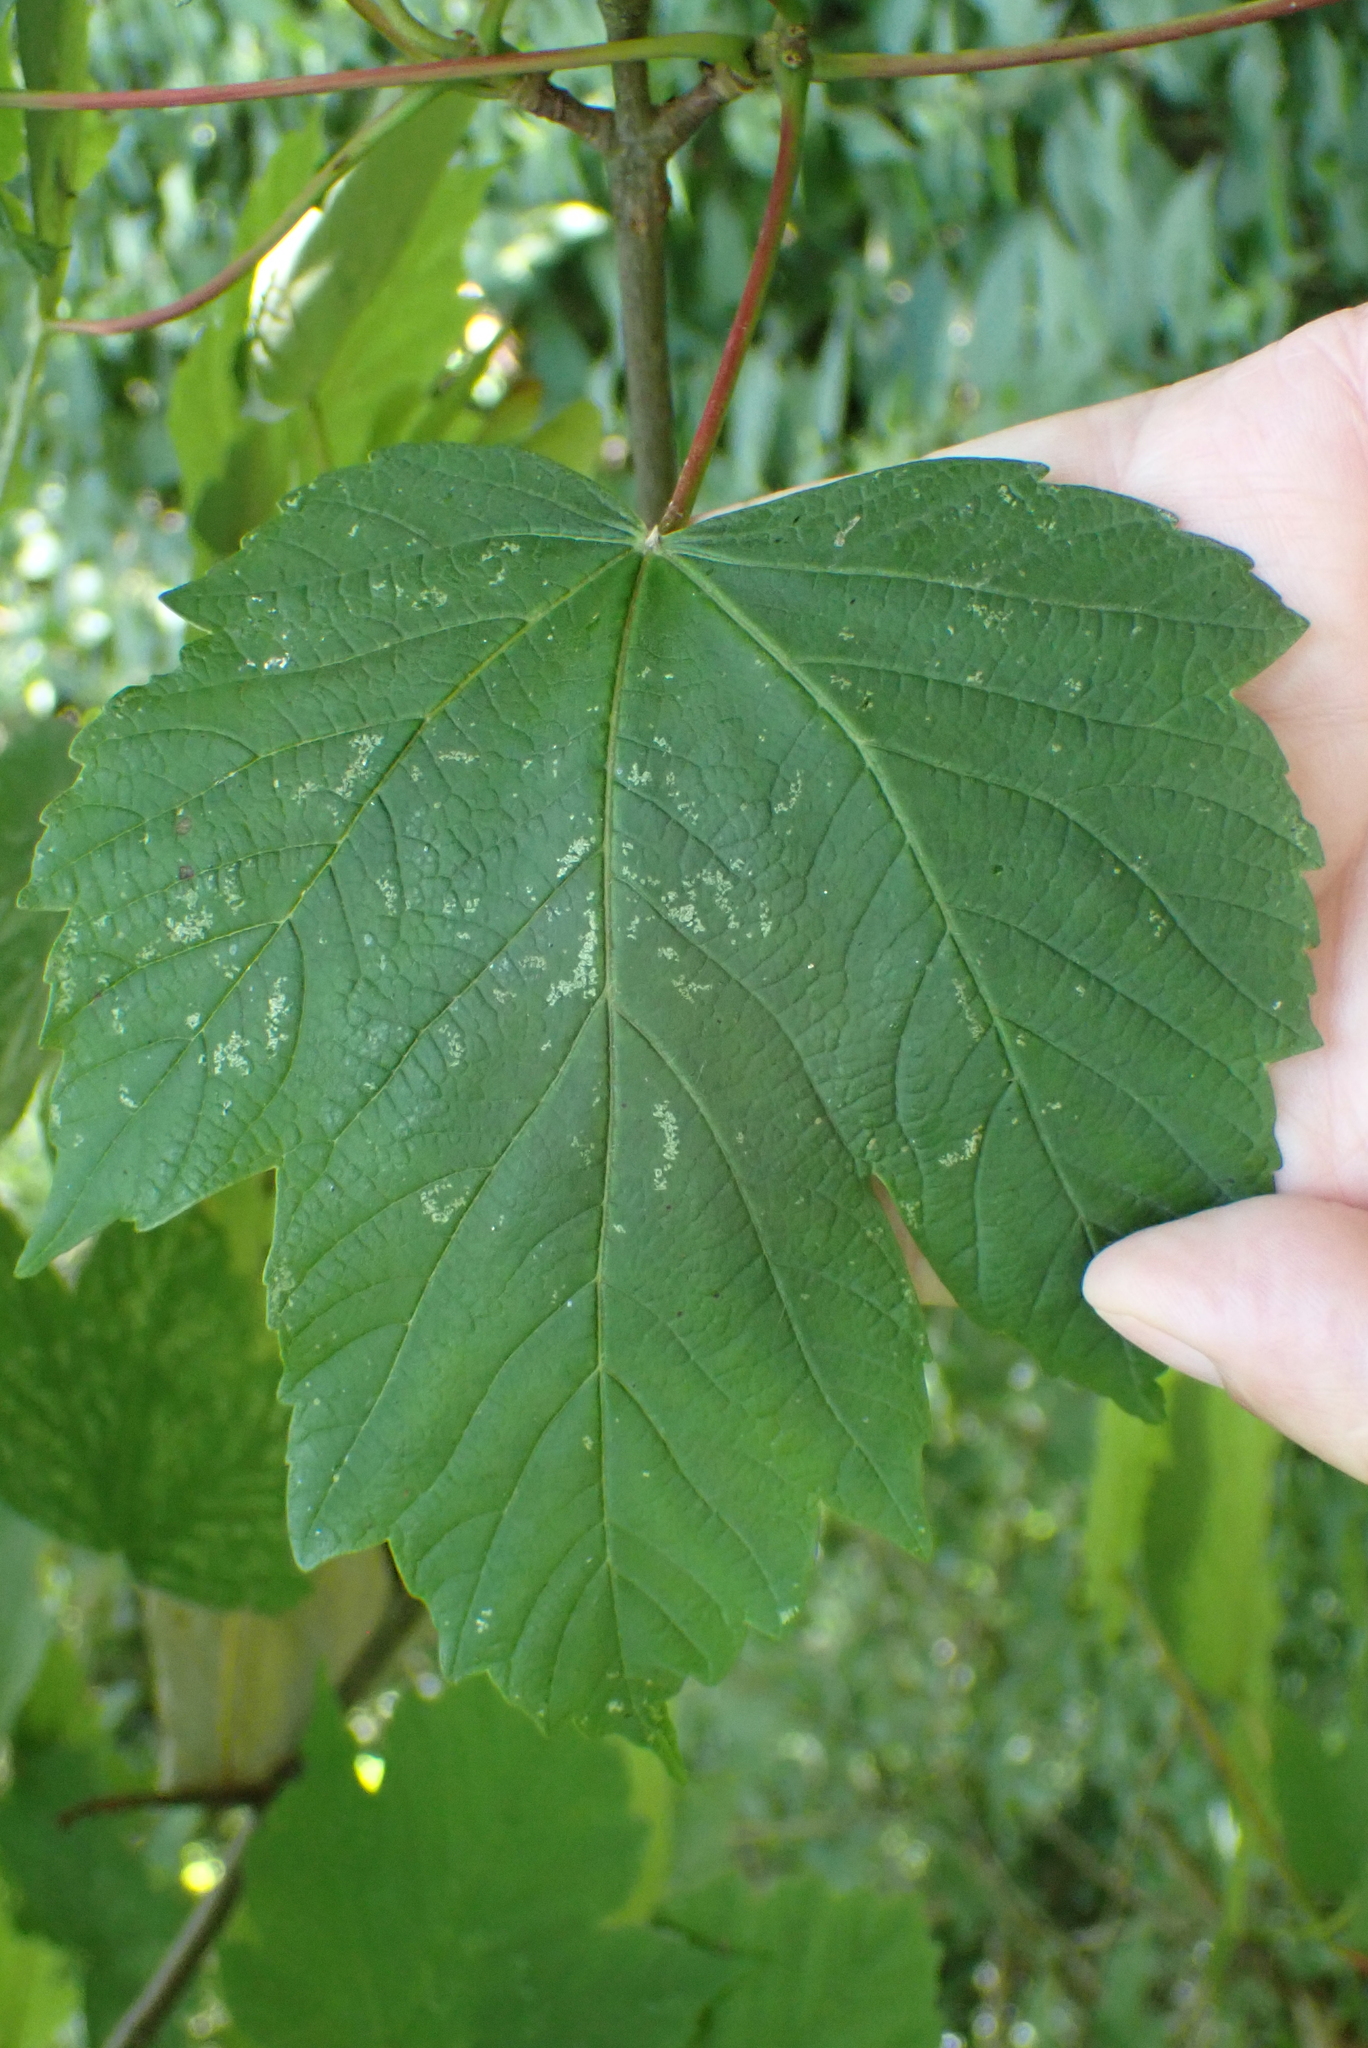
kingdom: Plantae
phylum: Tracheophyta
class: Magnoliopsida
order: Sapindales
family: Sapindaceae
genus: Acer
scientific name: Acer pseudoplatanus
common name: Sycamore
